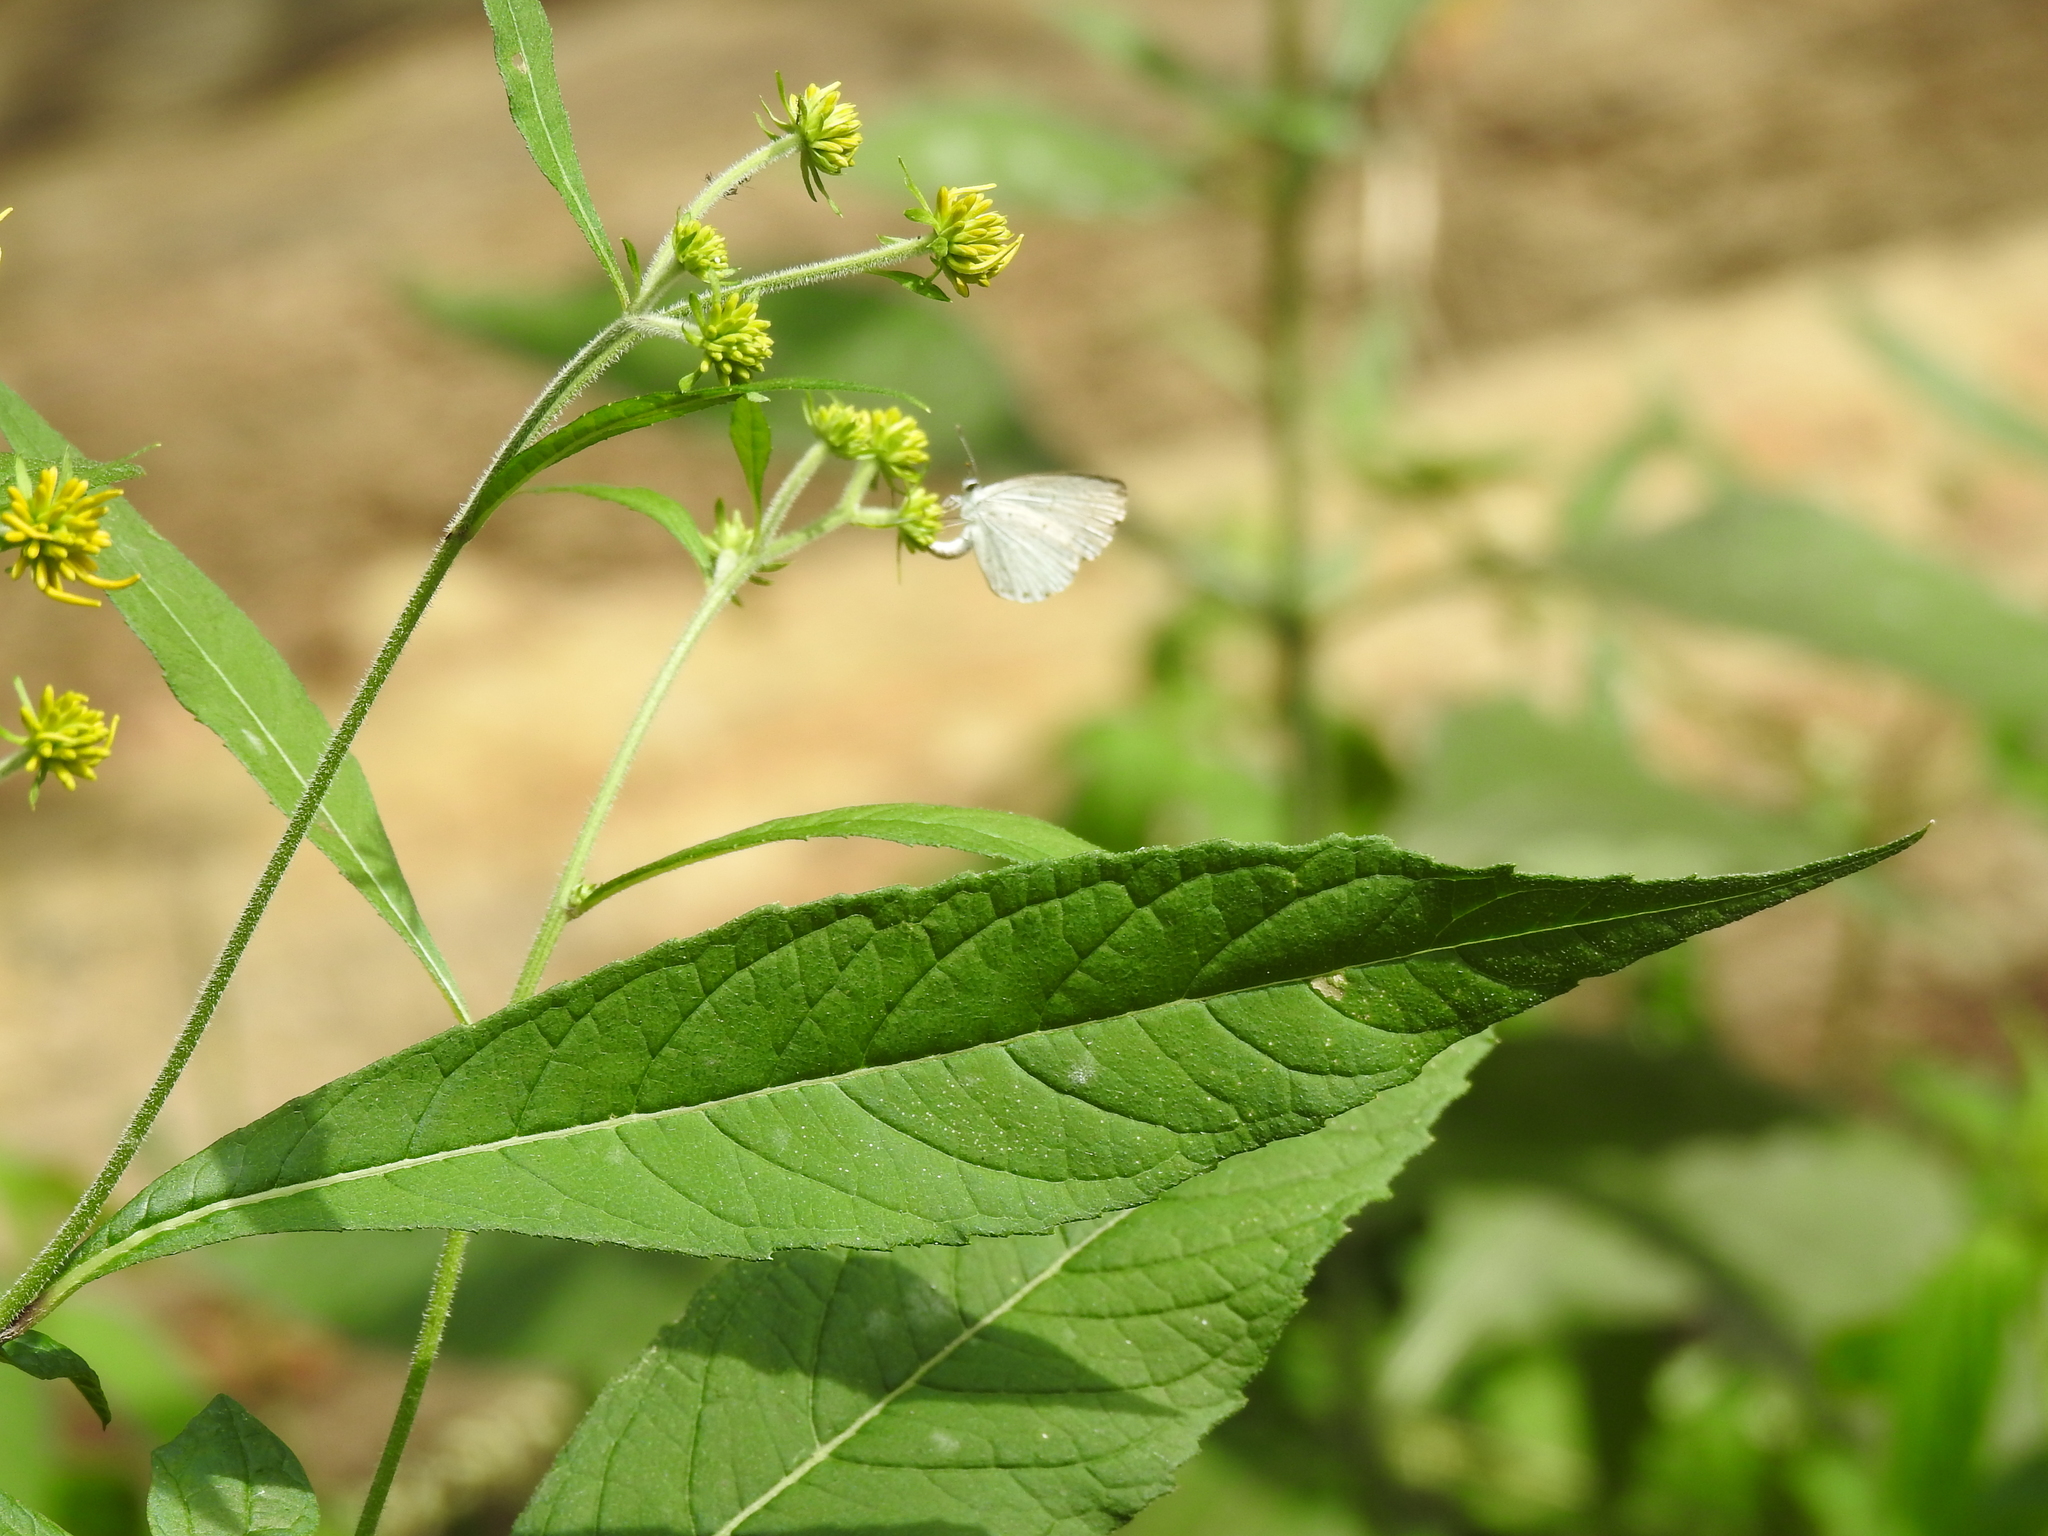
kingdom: Animalia
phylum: Arthropoda
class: Insecta
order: Lepidoptera
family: Lycaenidae
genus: Cyaniris
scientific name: Cyaniris neglecta
